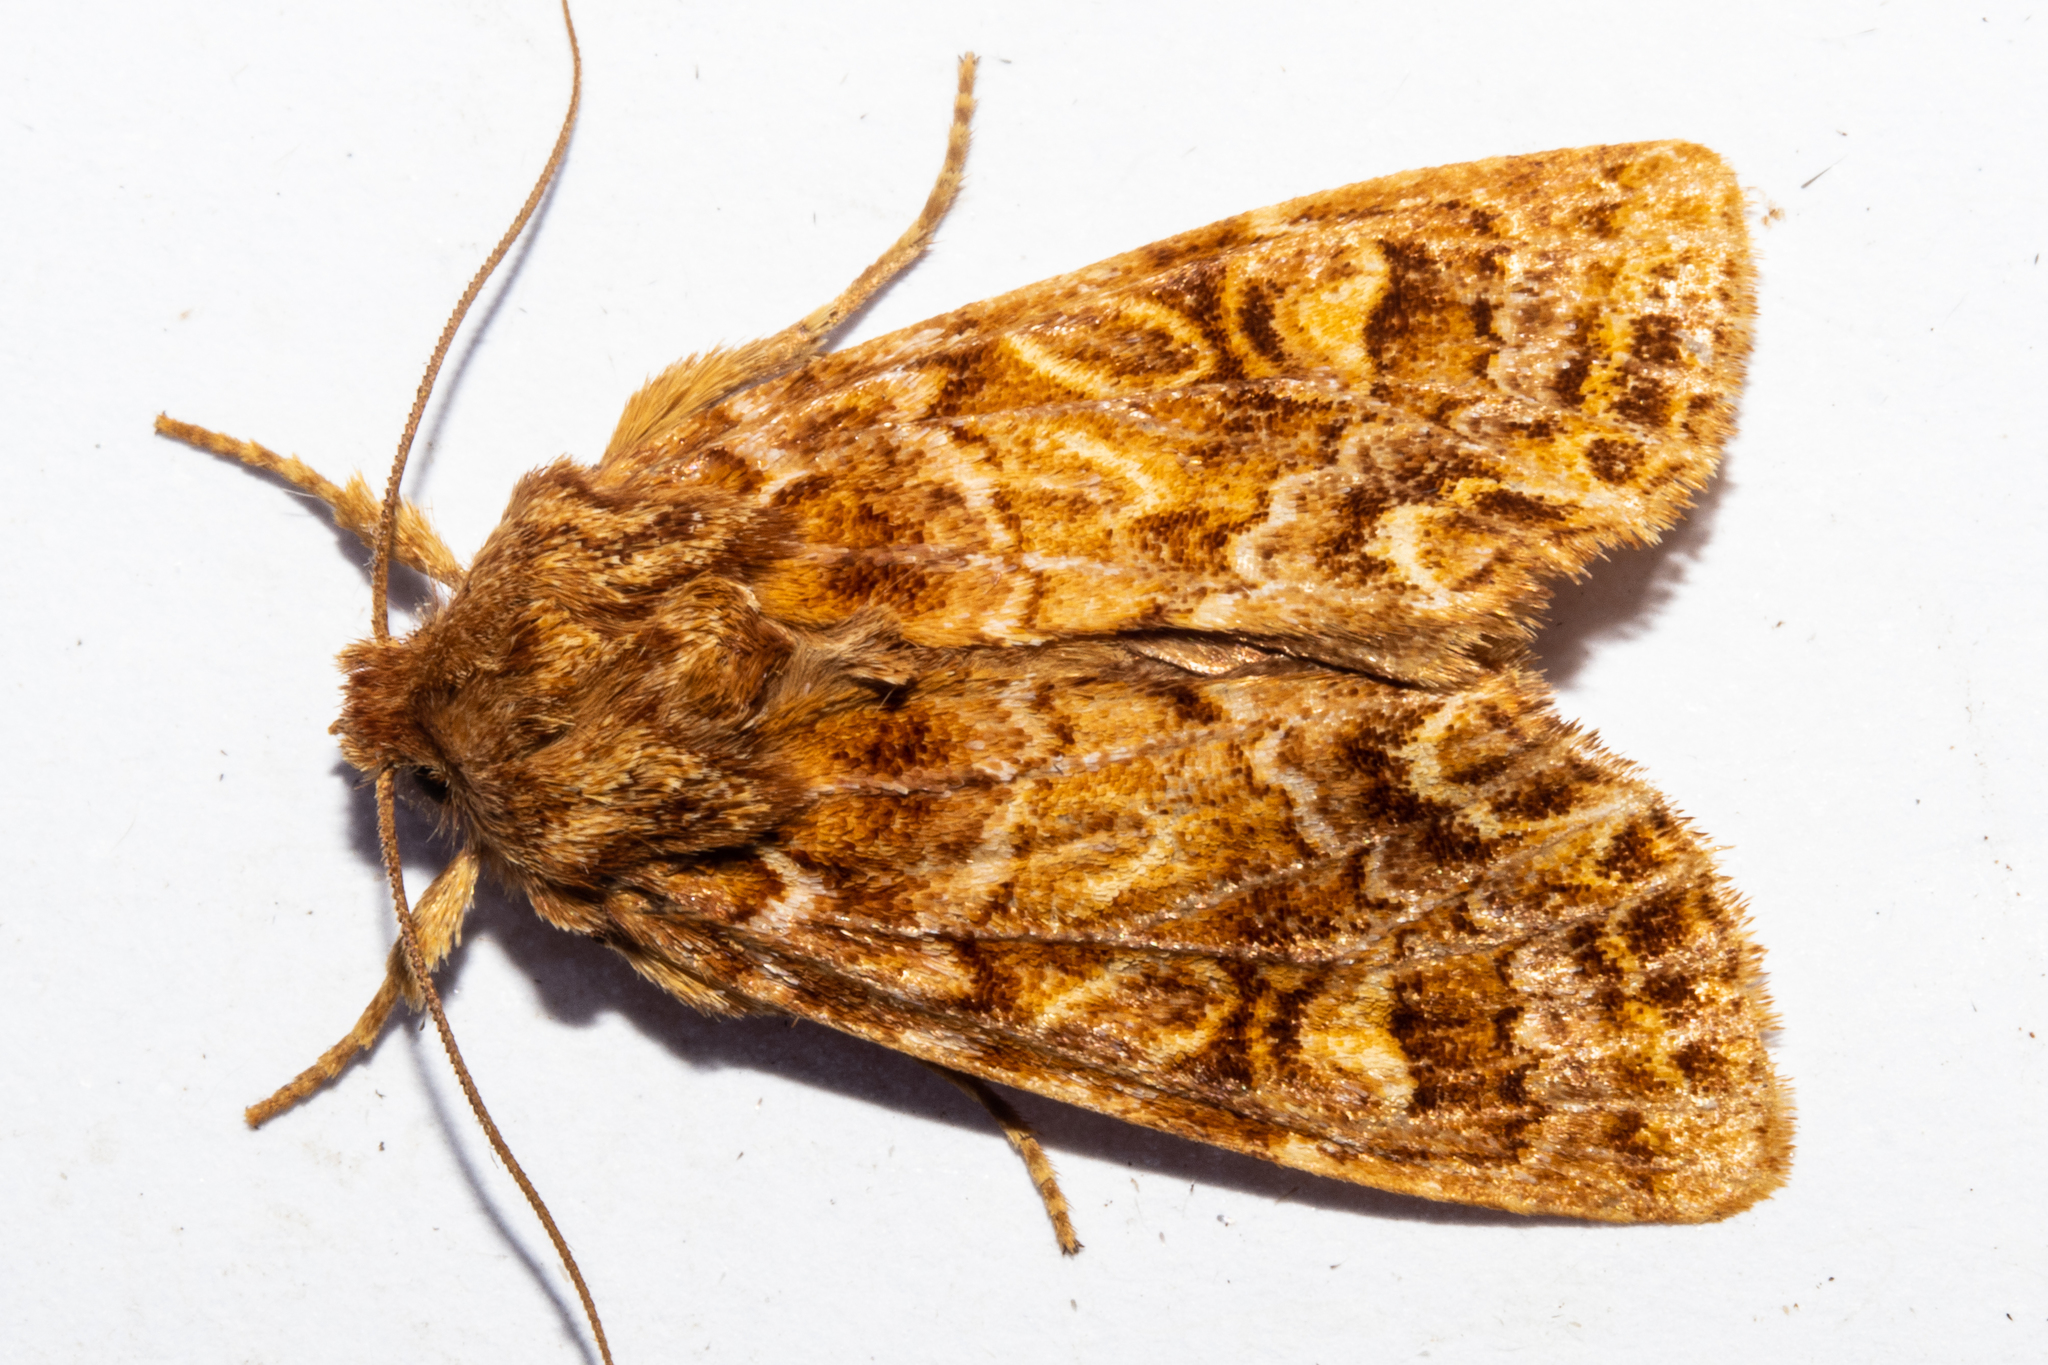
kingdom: Animalia
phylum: Arthropoda
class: Insecta
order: Lepidoptera
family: Noctuidae
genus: Ichneutica
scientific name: Ichneutica
